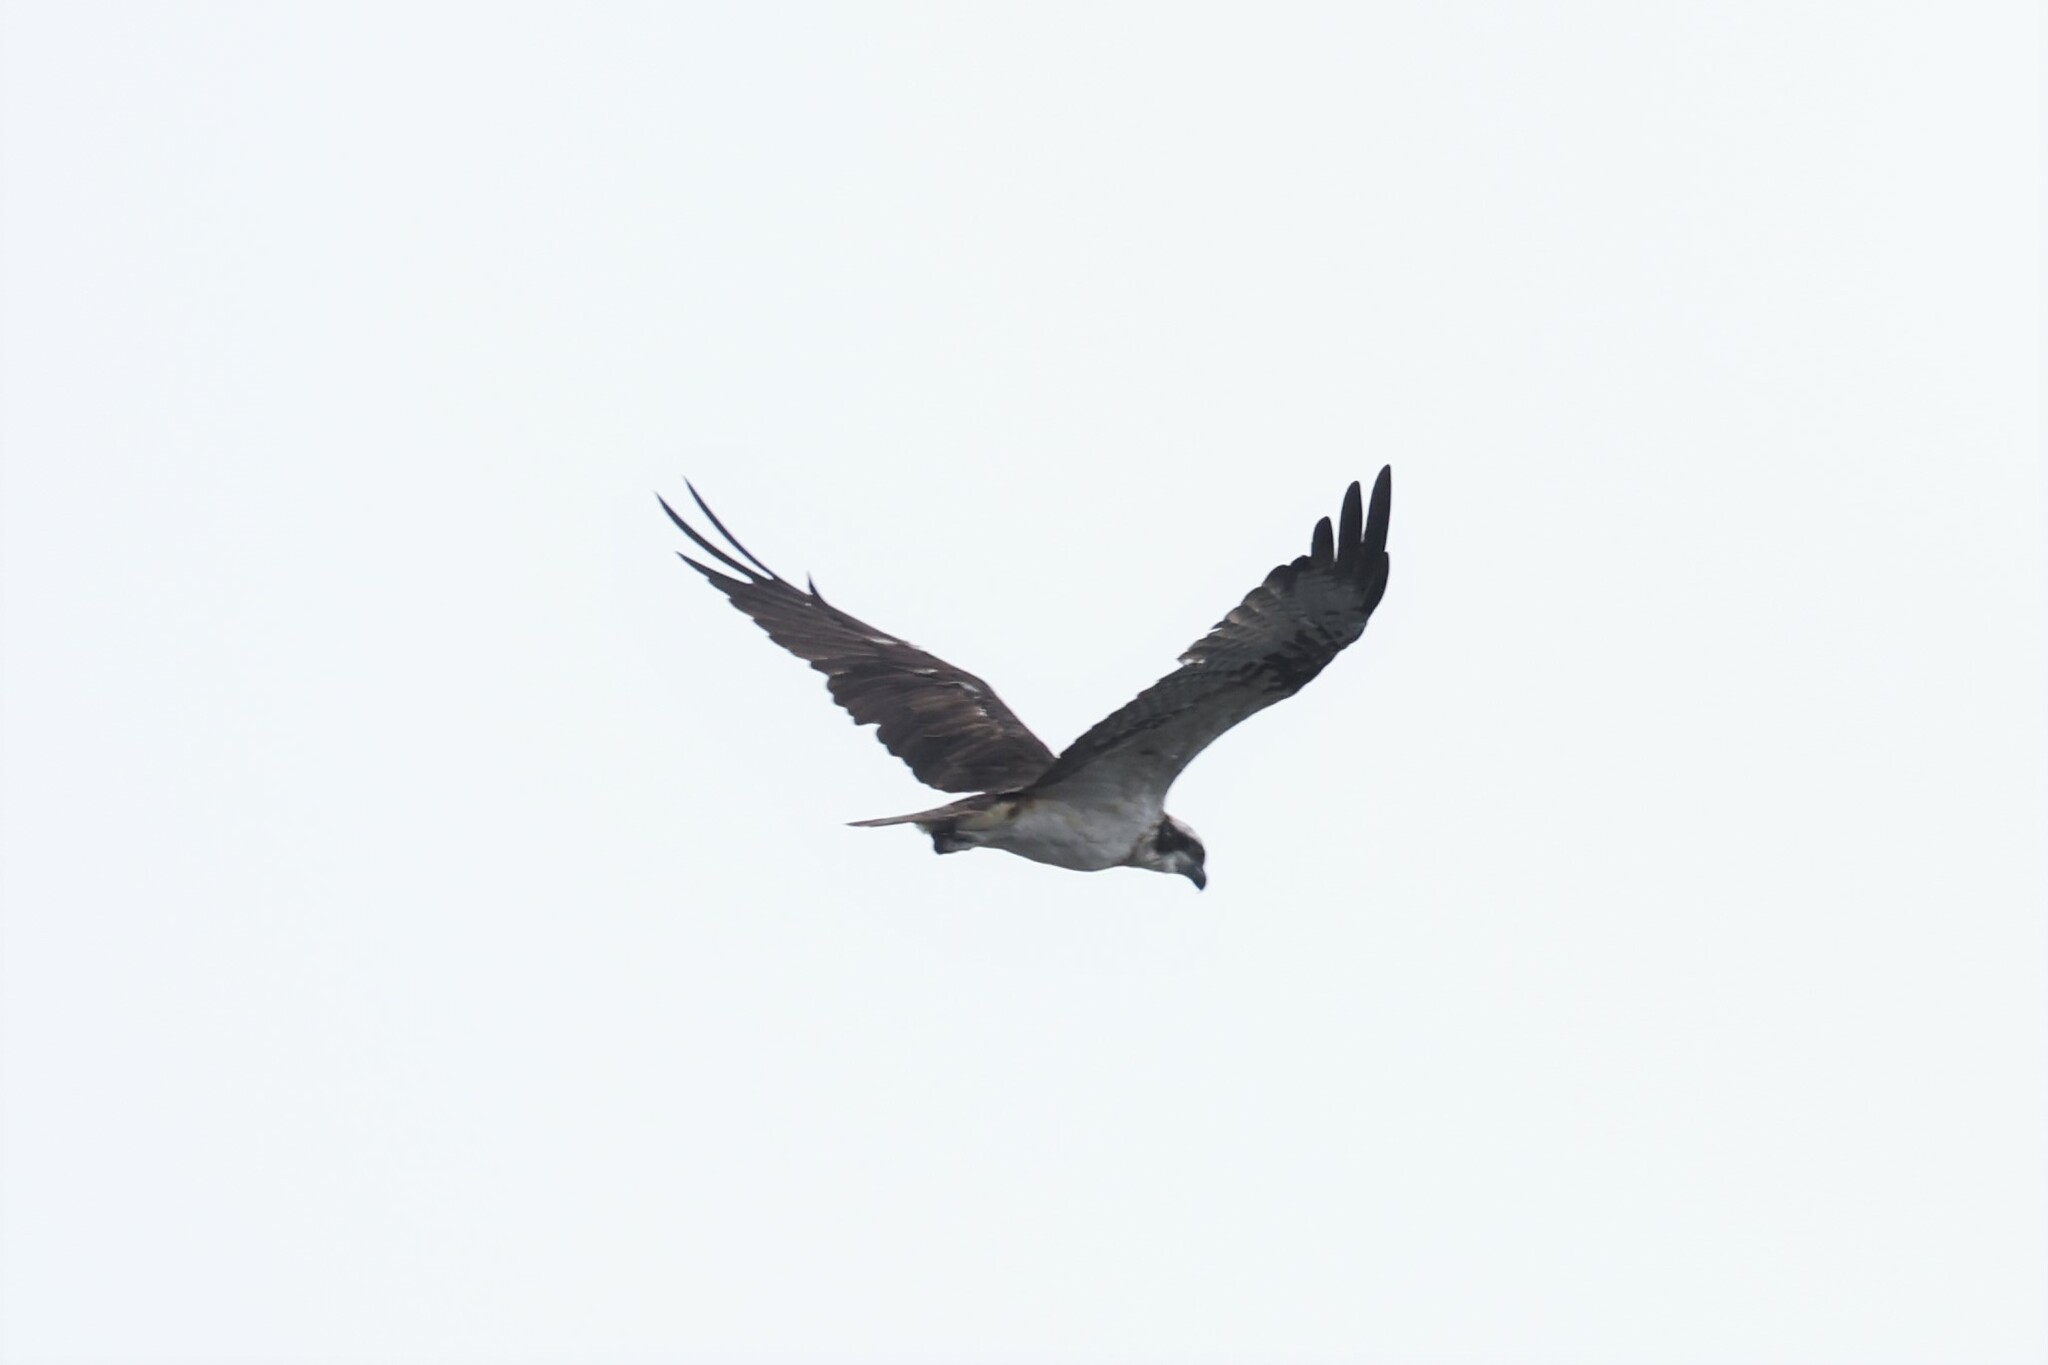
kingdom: Animalia
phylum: Chordata
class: Aves
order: Accipitriformes
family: Pandionidae
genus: Pandion
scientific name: Pandion haliaetus
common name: Osprey
